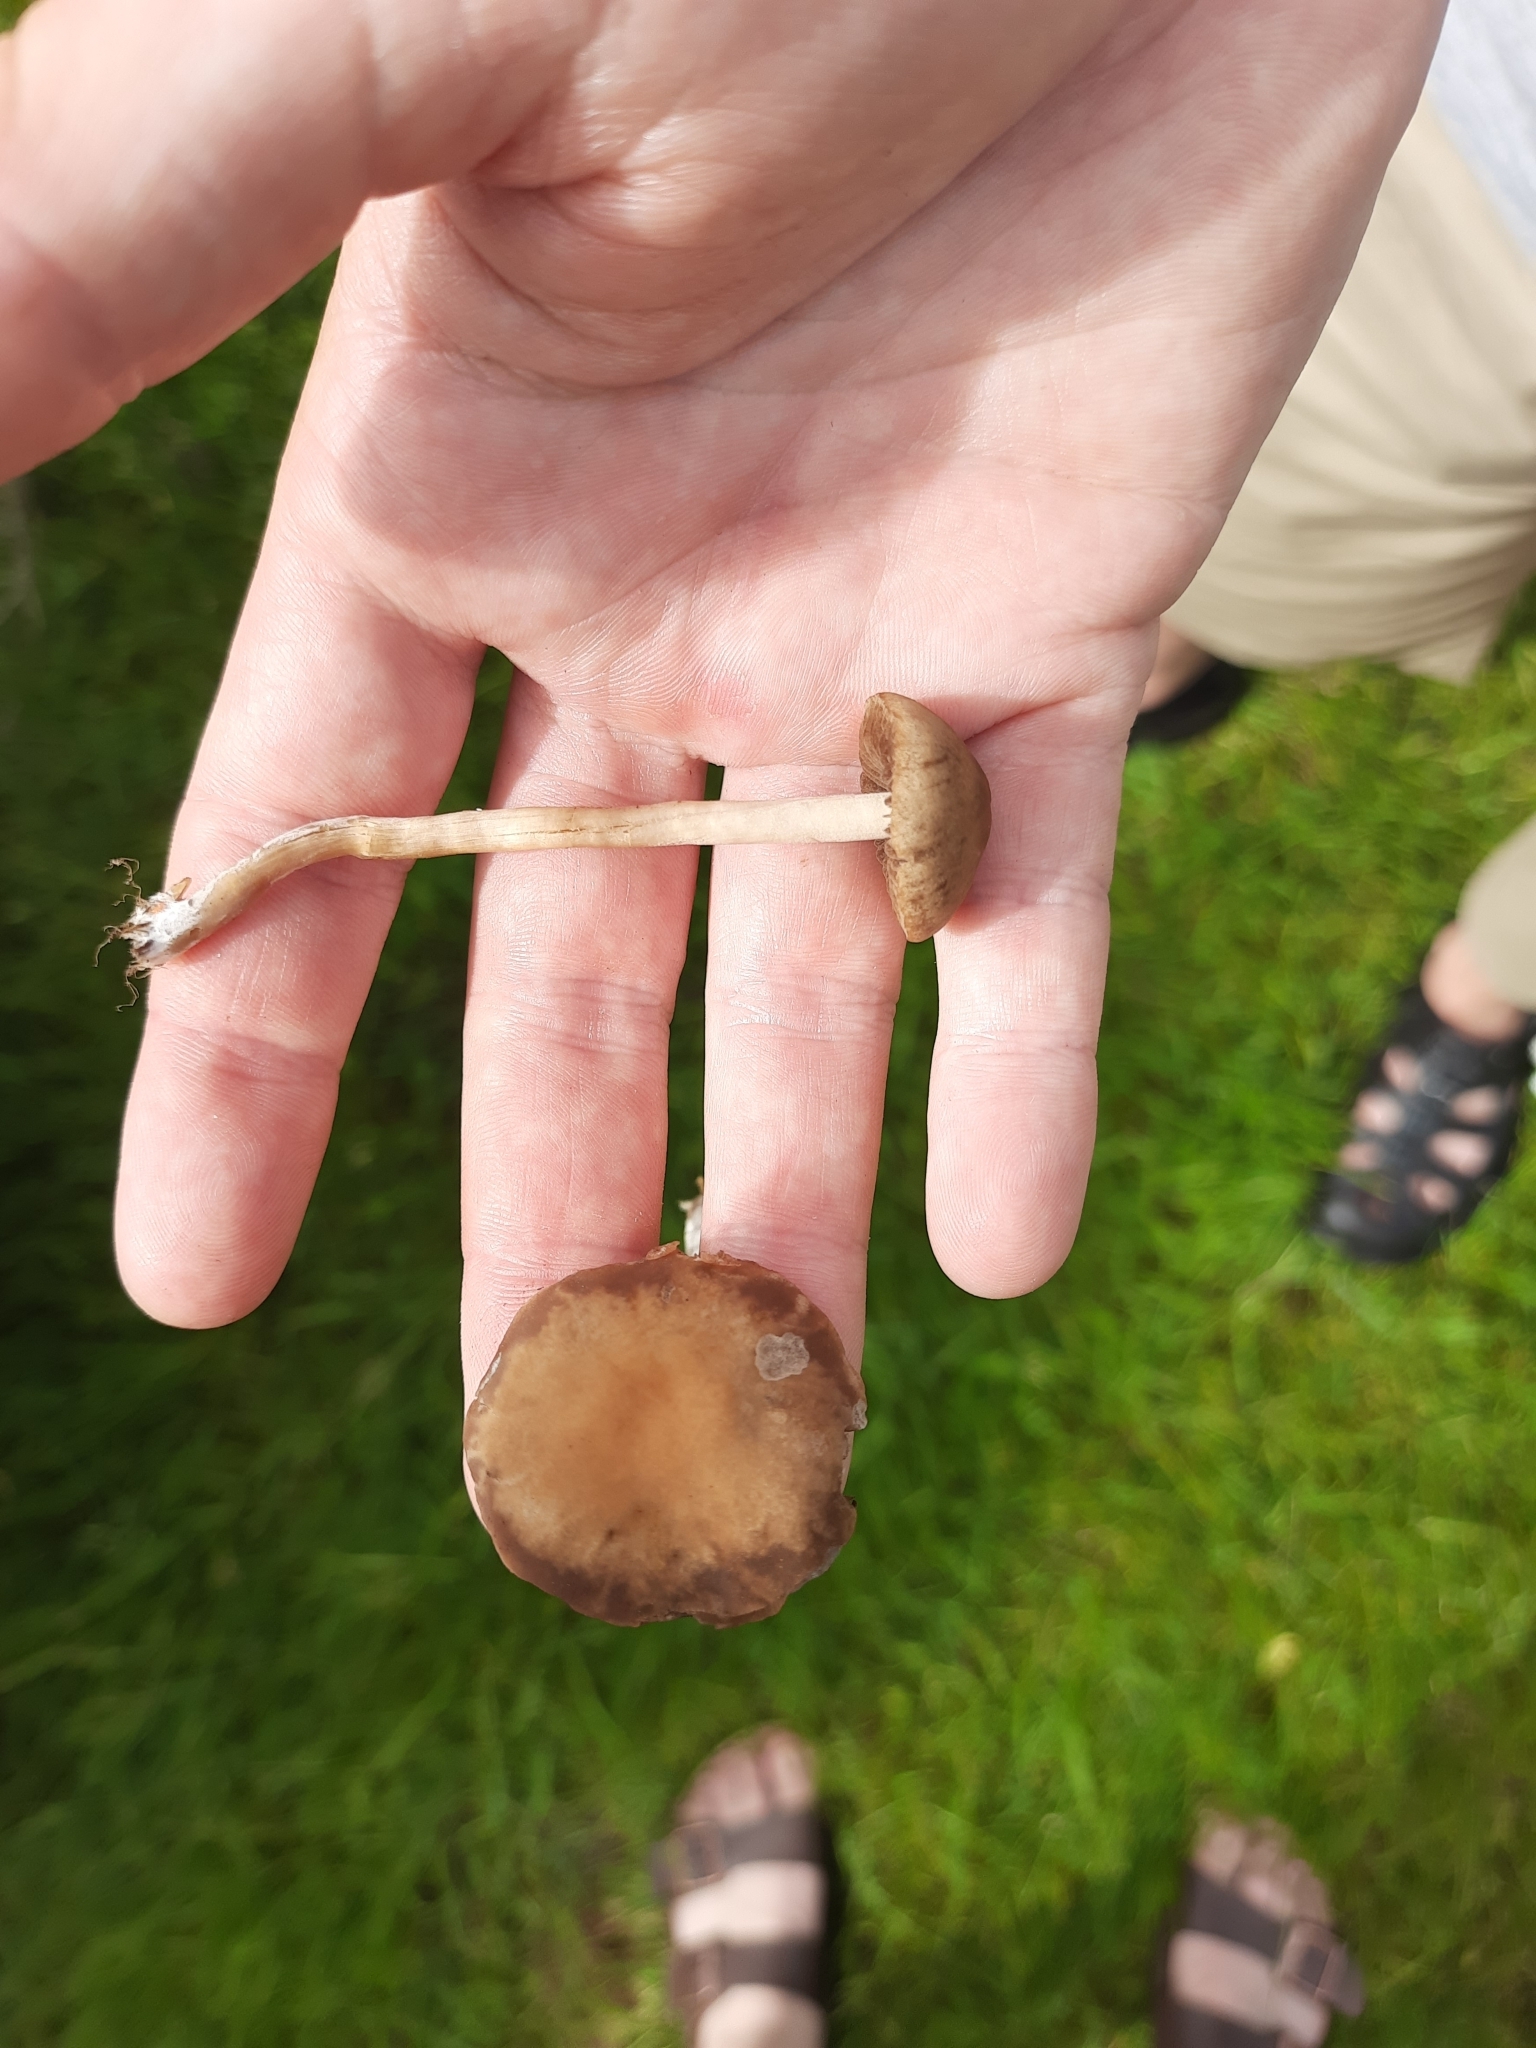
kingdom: Fungi
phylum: Basidiomycota
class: Agaricomycetes
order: Agaricales
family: Bolbitiaceae
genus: Panaeolina
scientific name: Panaeolina foenisecii
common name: Brown hay cap
